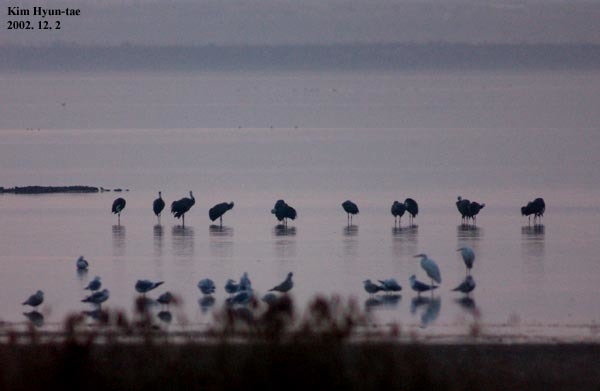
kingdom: Animalia
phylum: Chordata
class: Aves
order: Gruiformes
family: Gruidae
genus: Grus
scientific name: Grus monacha
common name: Hooded crane
